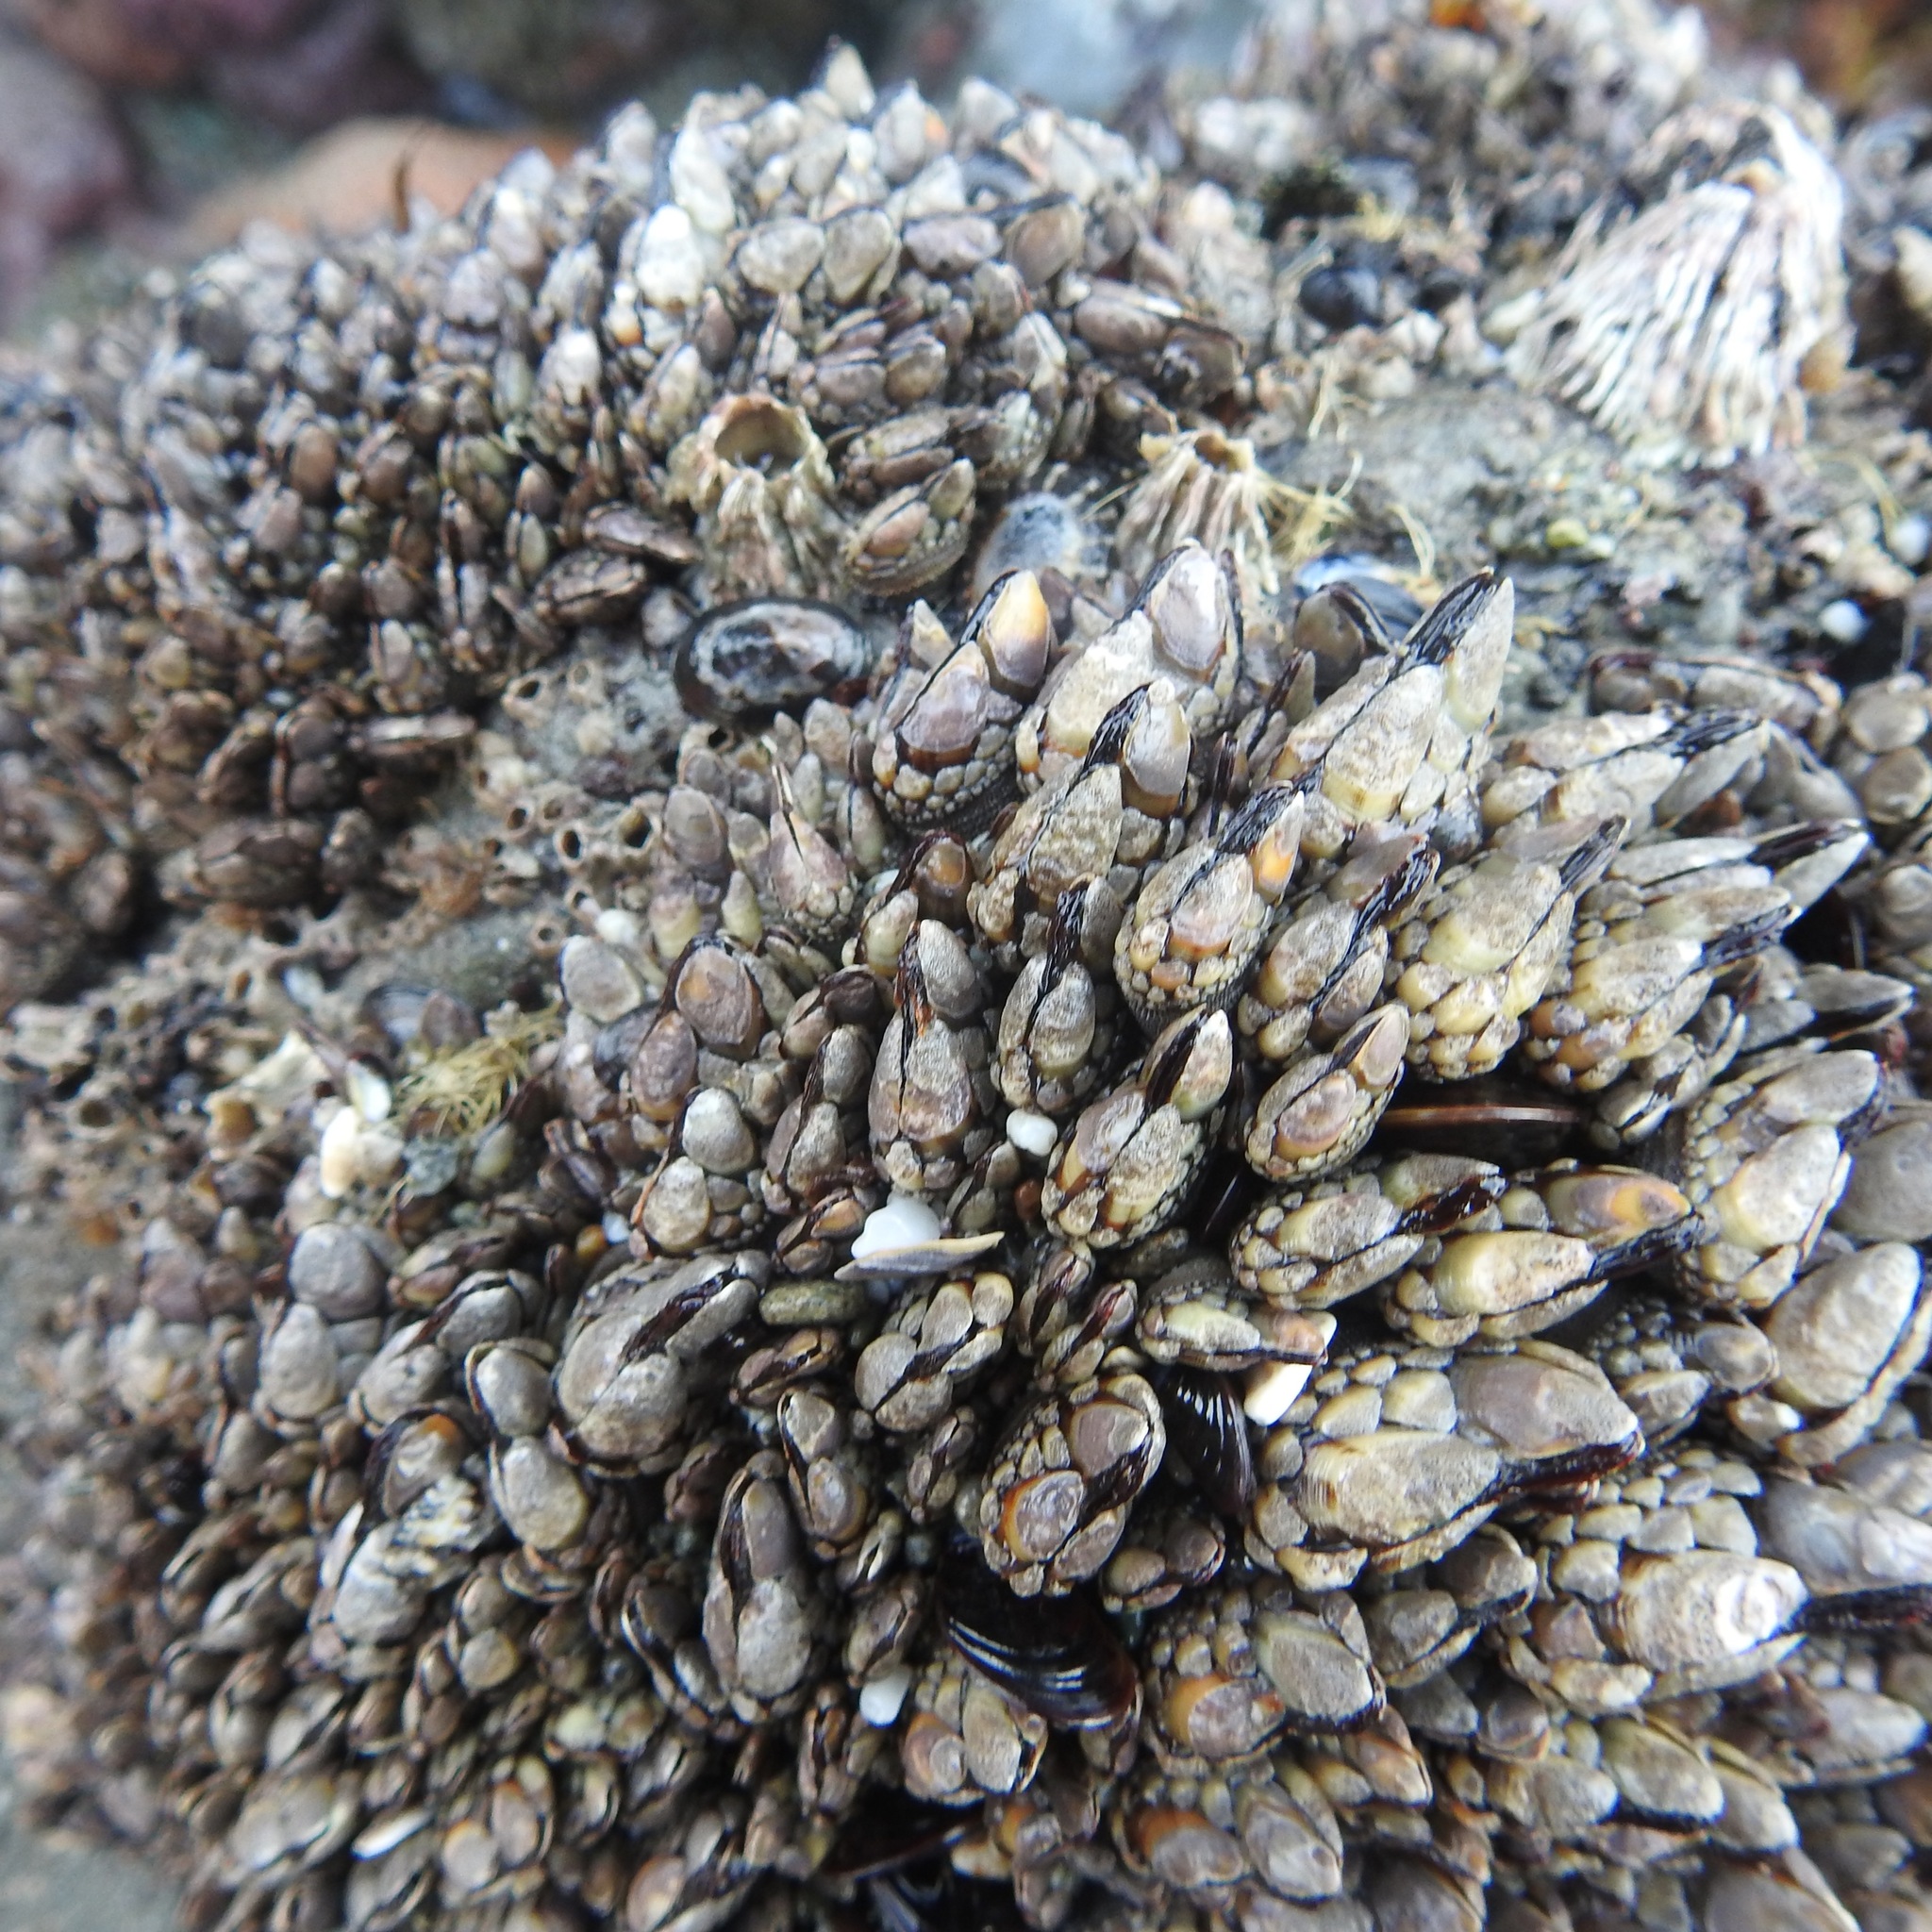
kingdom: Animalia
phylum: Arthropoda
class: Maxillopoda
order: Pedunculata
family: Pollicipedidae
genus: Pollicipes
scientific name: Pollicipes polymerus
